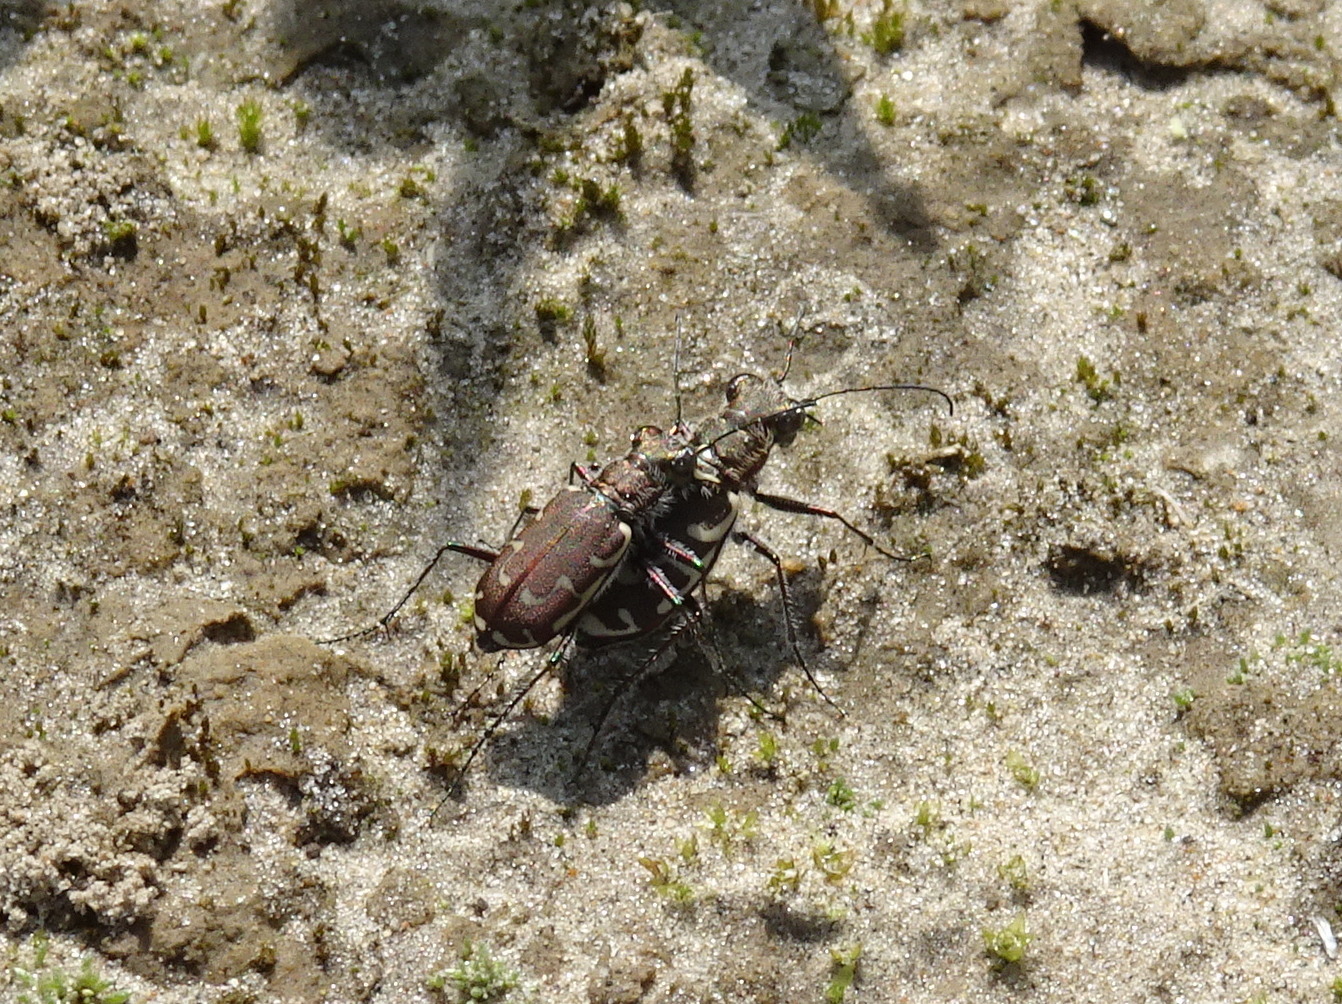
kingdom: Animalia
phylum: Arthropoda
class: Insecta
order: Coleoptera
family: Carabidae
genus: Cicindela
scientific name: Cicindela repanda
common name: Bronzed tiger beetle
